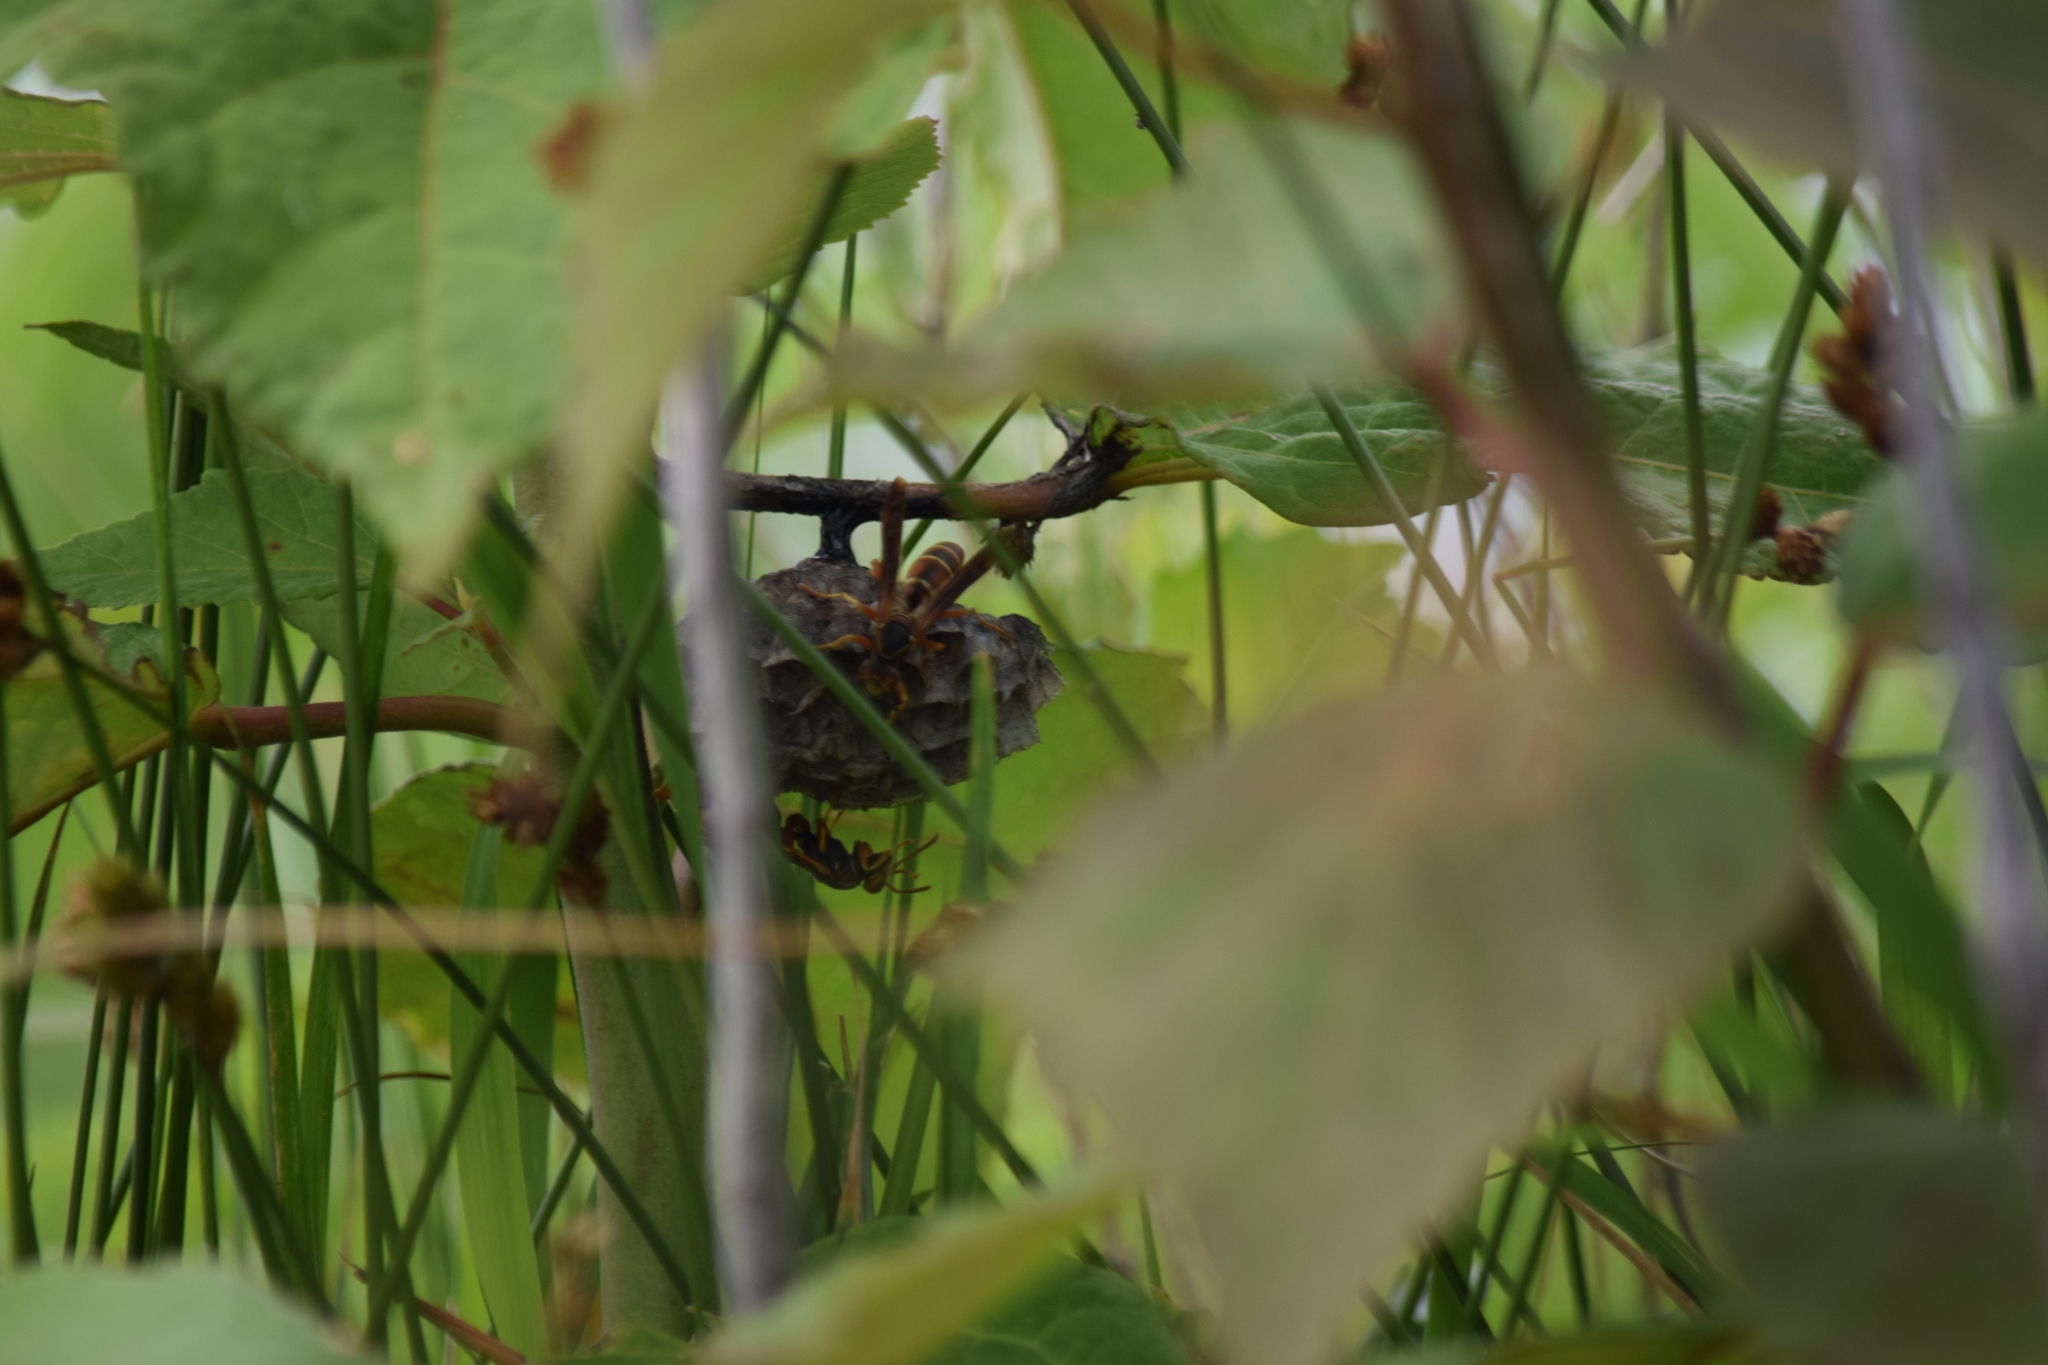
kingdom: Animalia
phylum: Arthropoda
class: Insecta
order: Hymenoptera
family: Vespidae
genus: Fuscopolistes
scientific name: Fuscopolistes
